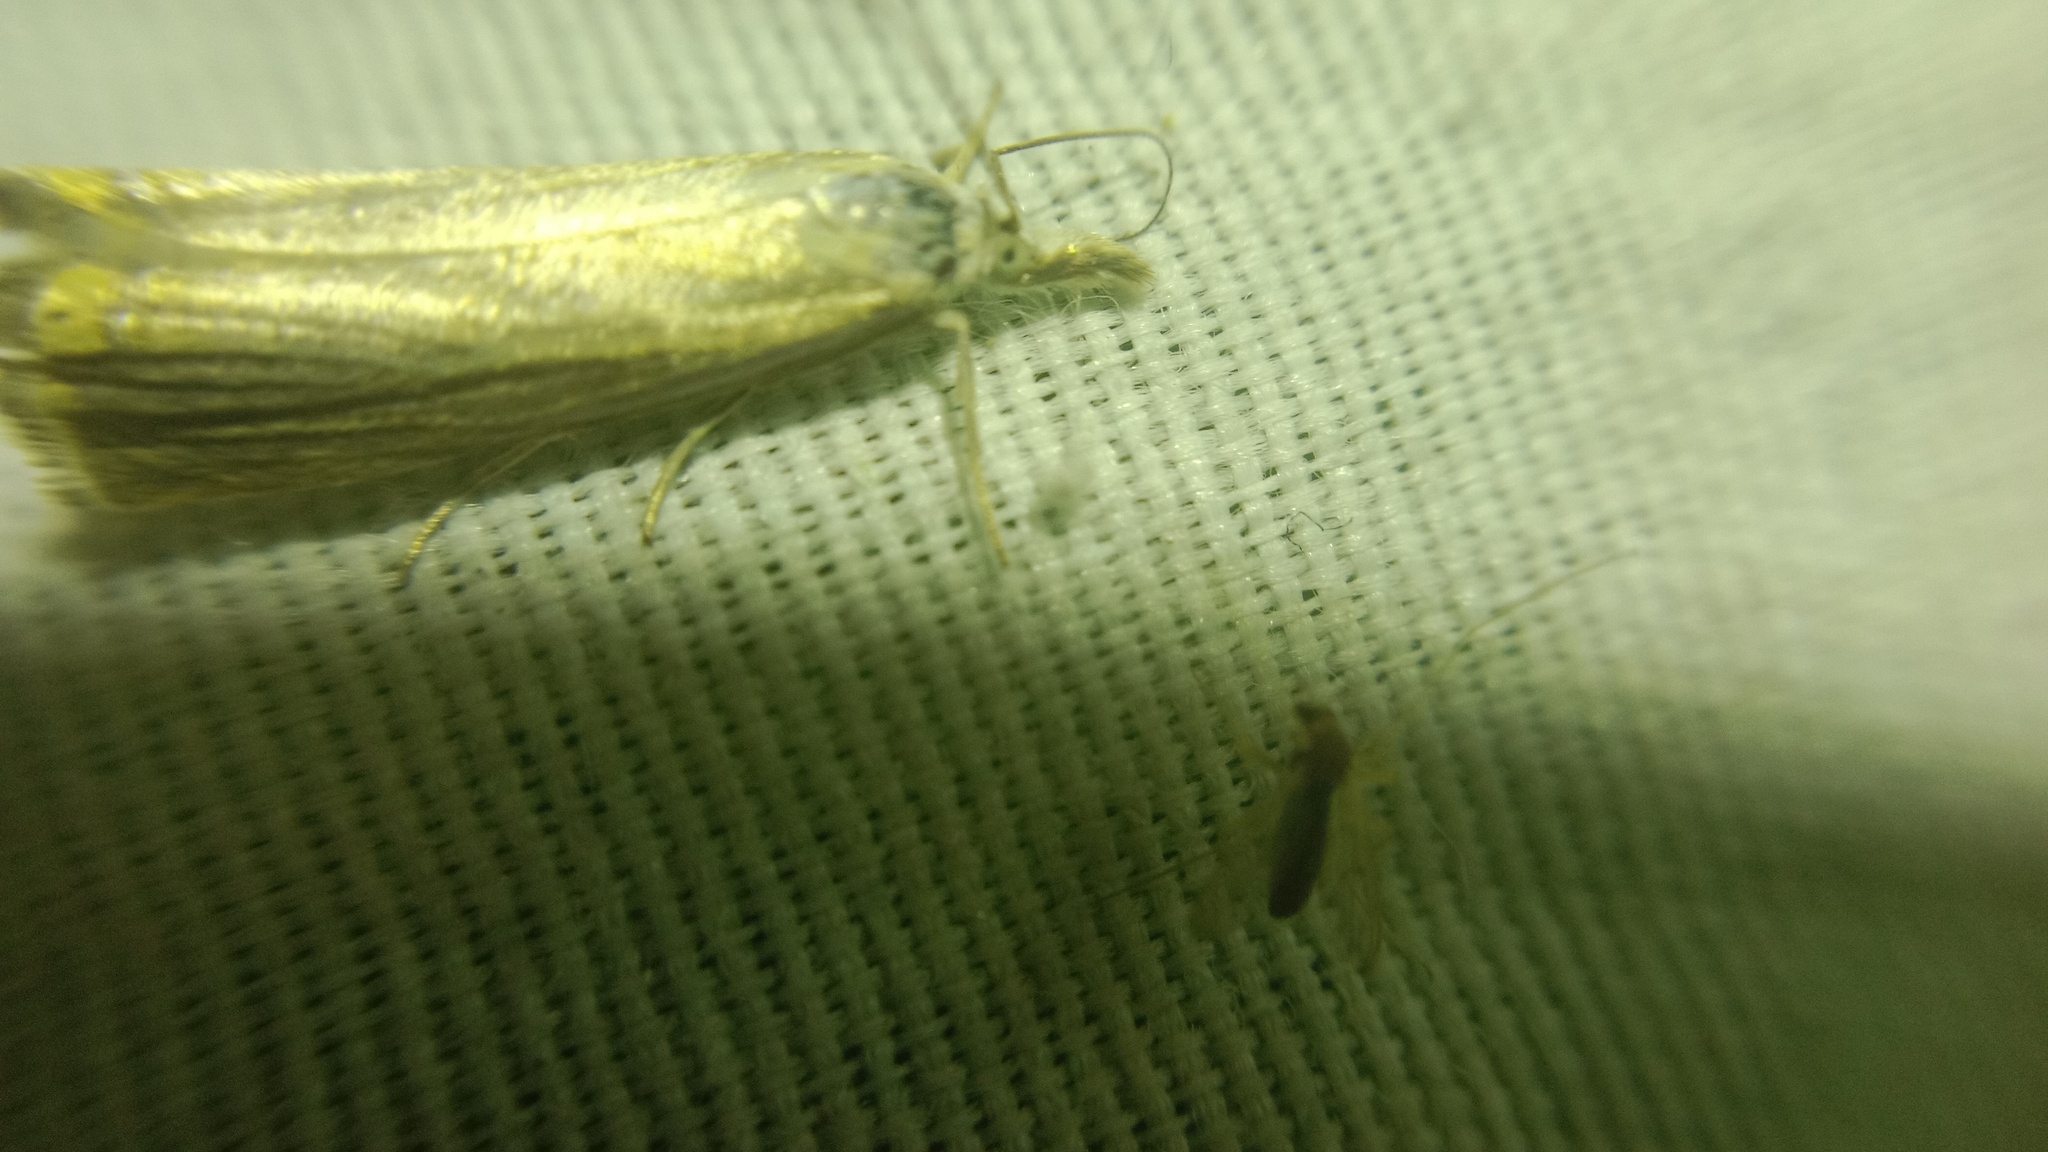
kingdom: Animalia
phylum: Arthropoda
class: Insecta
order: Lepidoptera
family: Crambidae
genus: Chrysoteuchia
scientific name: Chrysoteuchia culmella
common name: Garden grass-veneer
